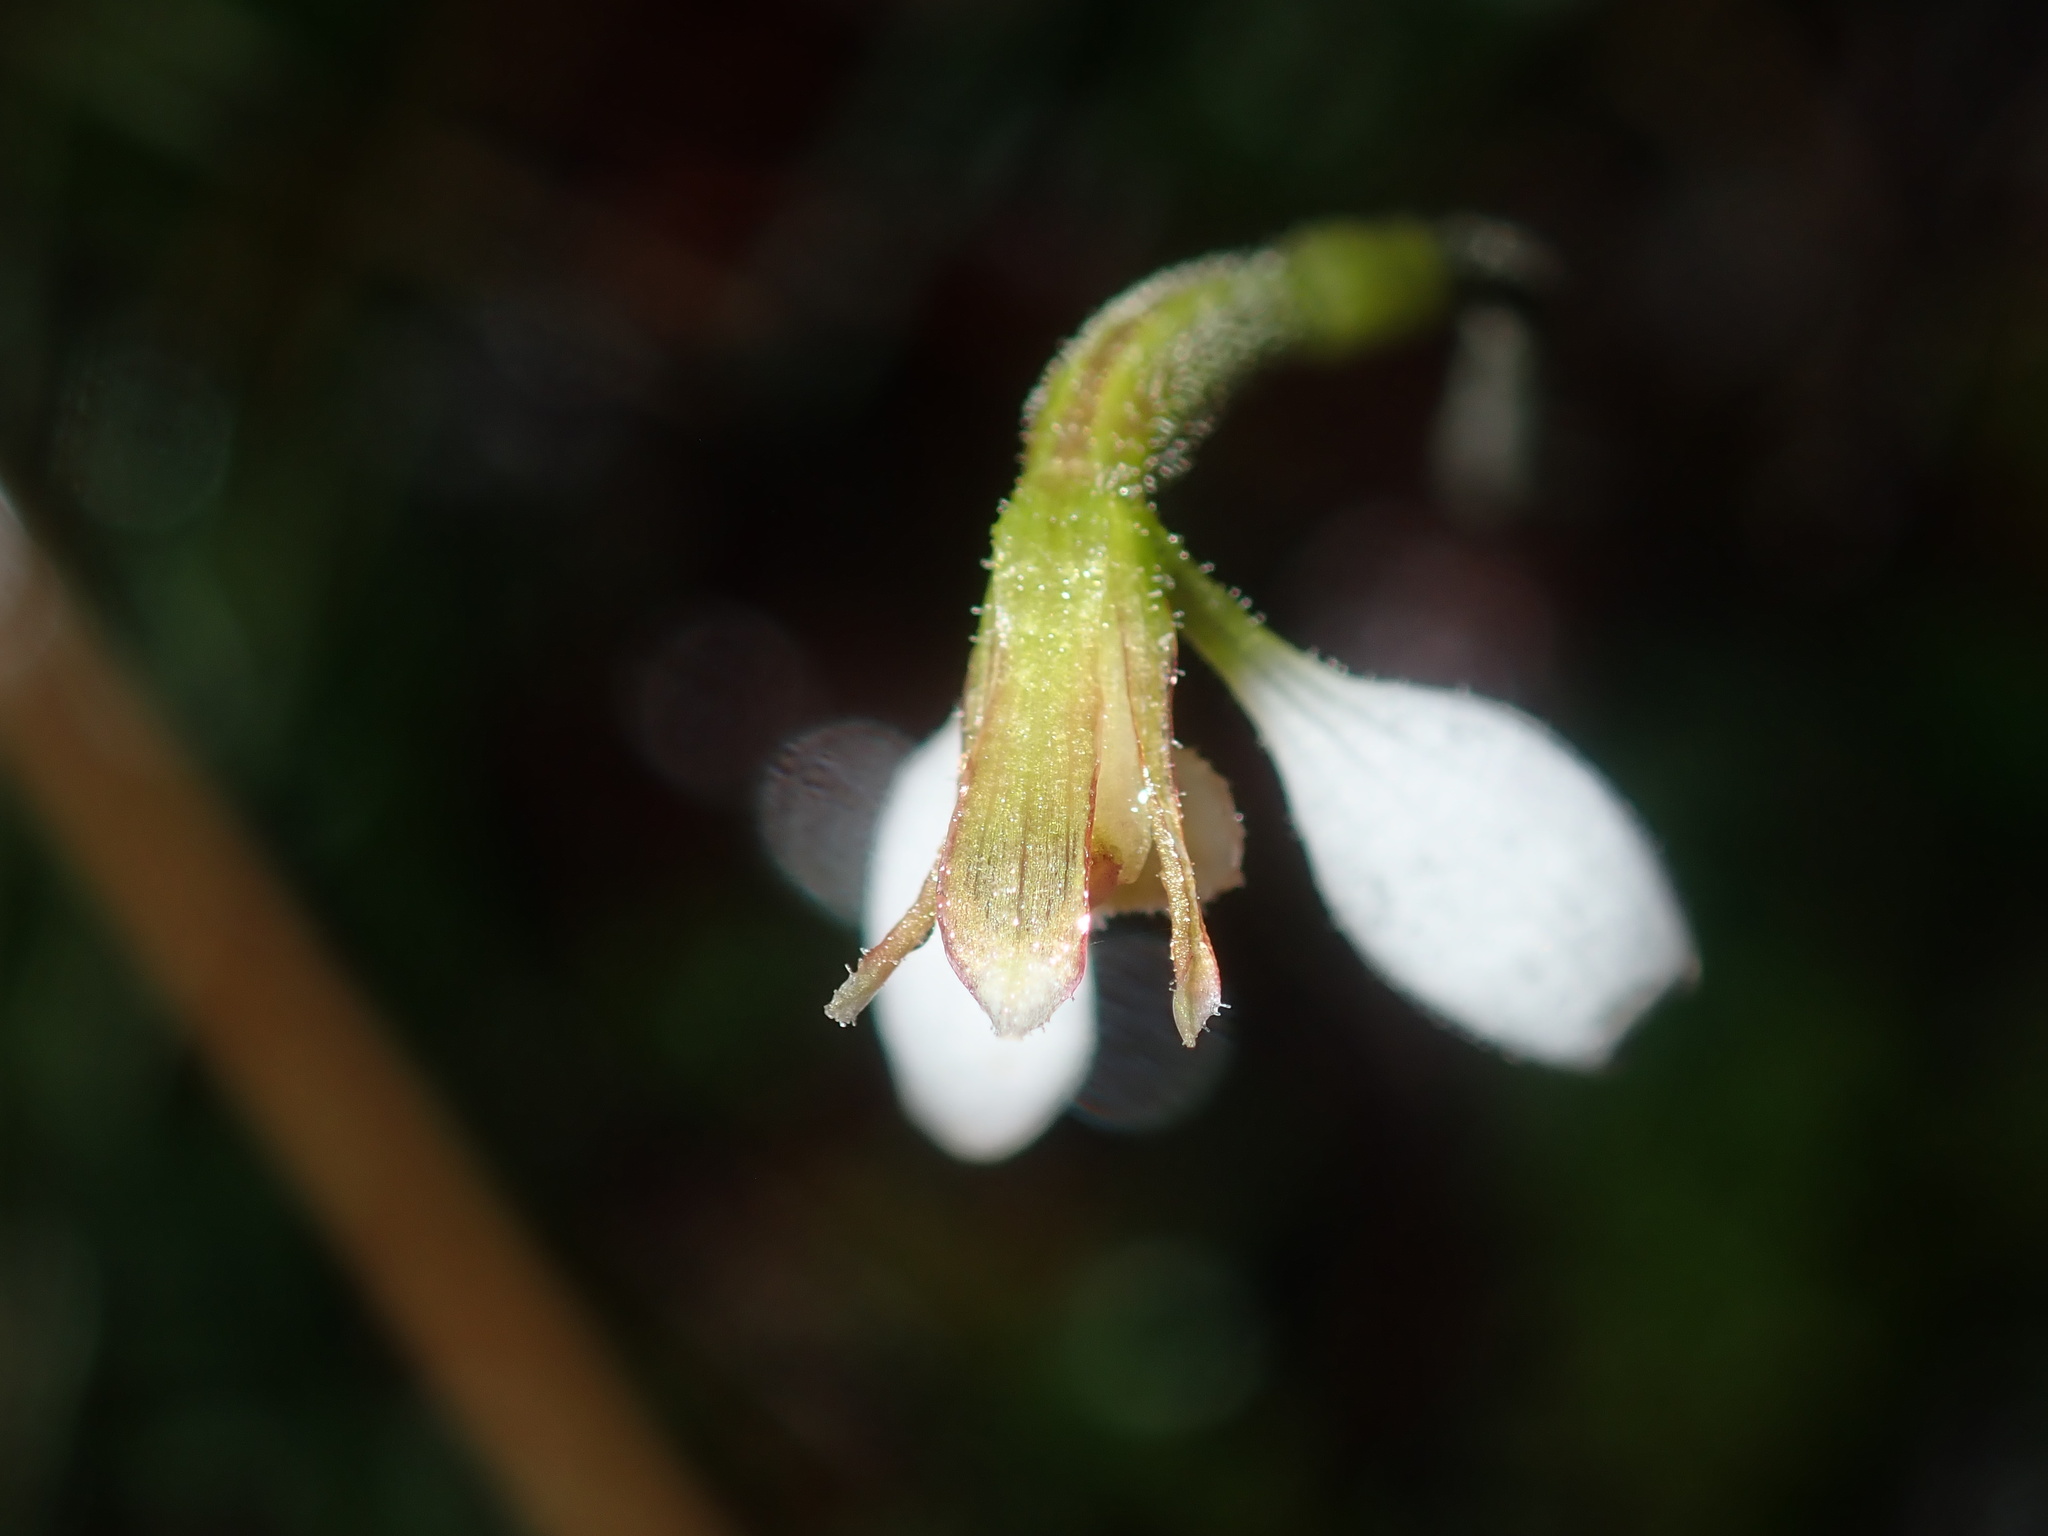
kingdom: Plantae
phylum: Tracheophyta
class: Liliopsida
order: Asparagales
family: Orchidaceae
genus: Eriochilus
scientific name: Eriochilus cucullatus
